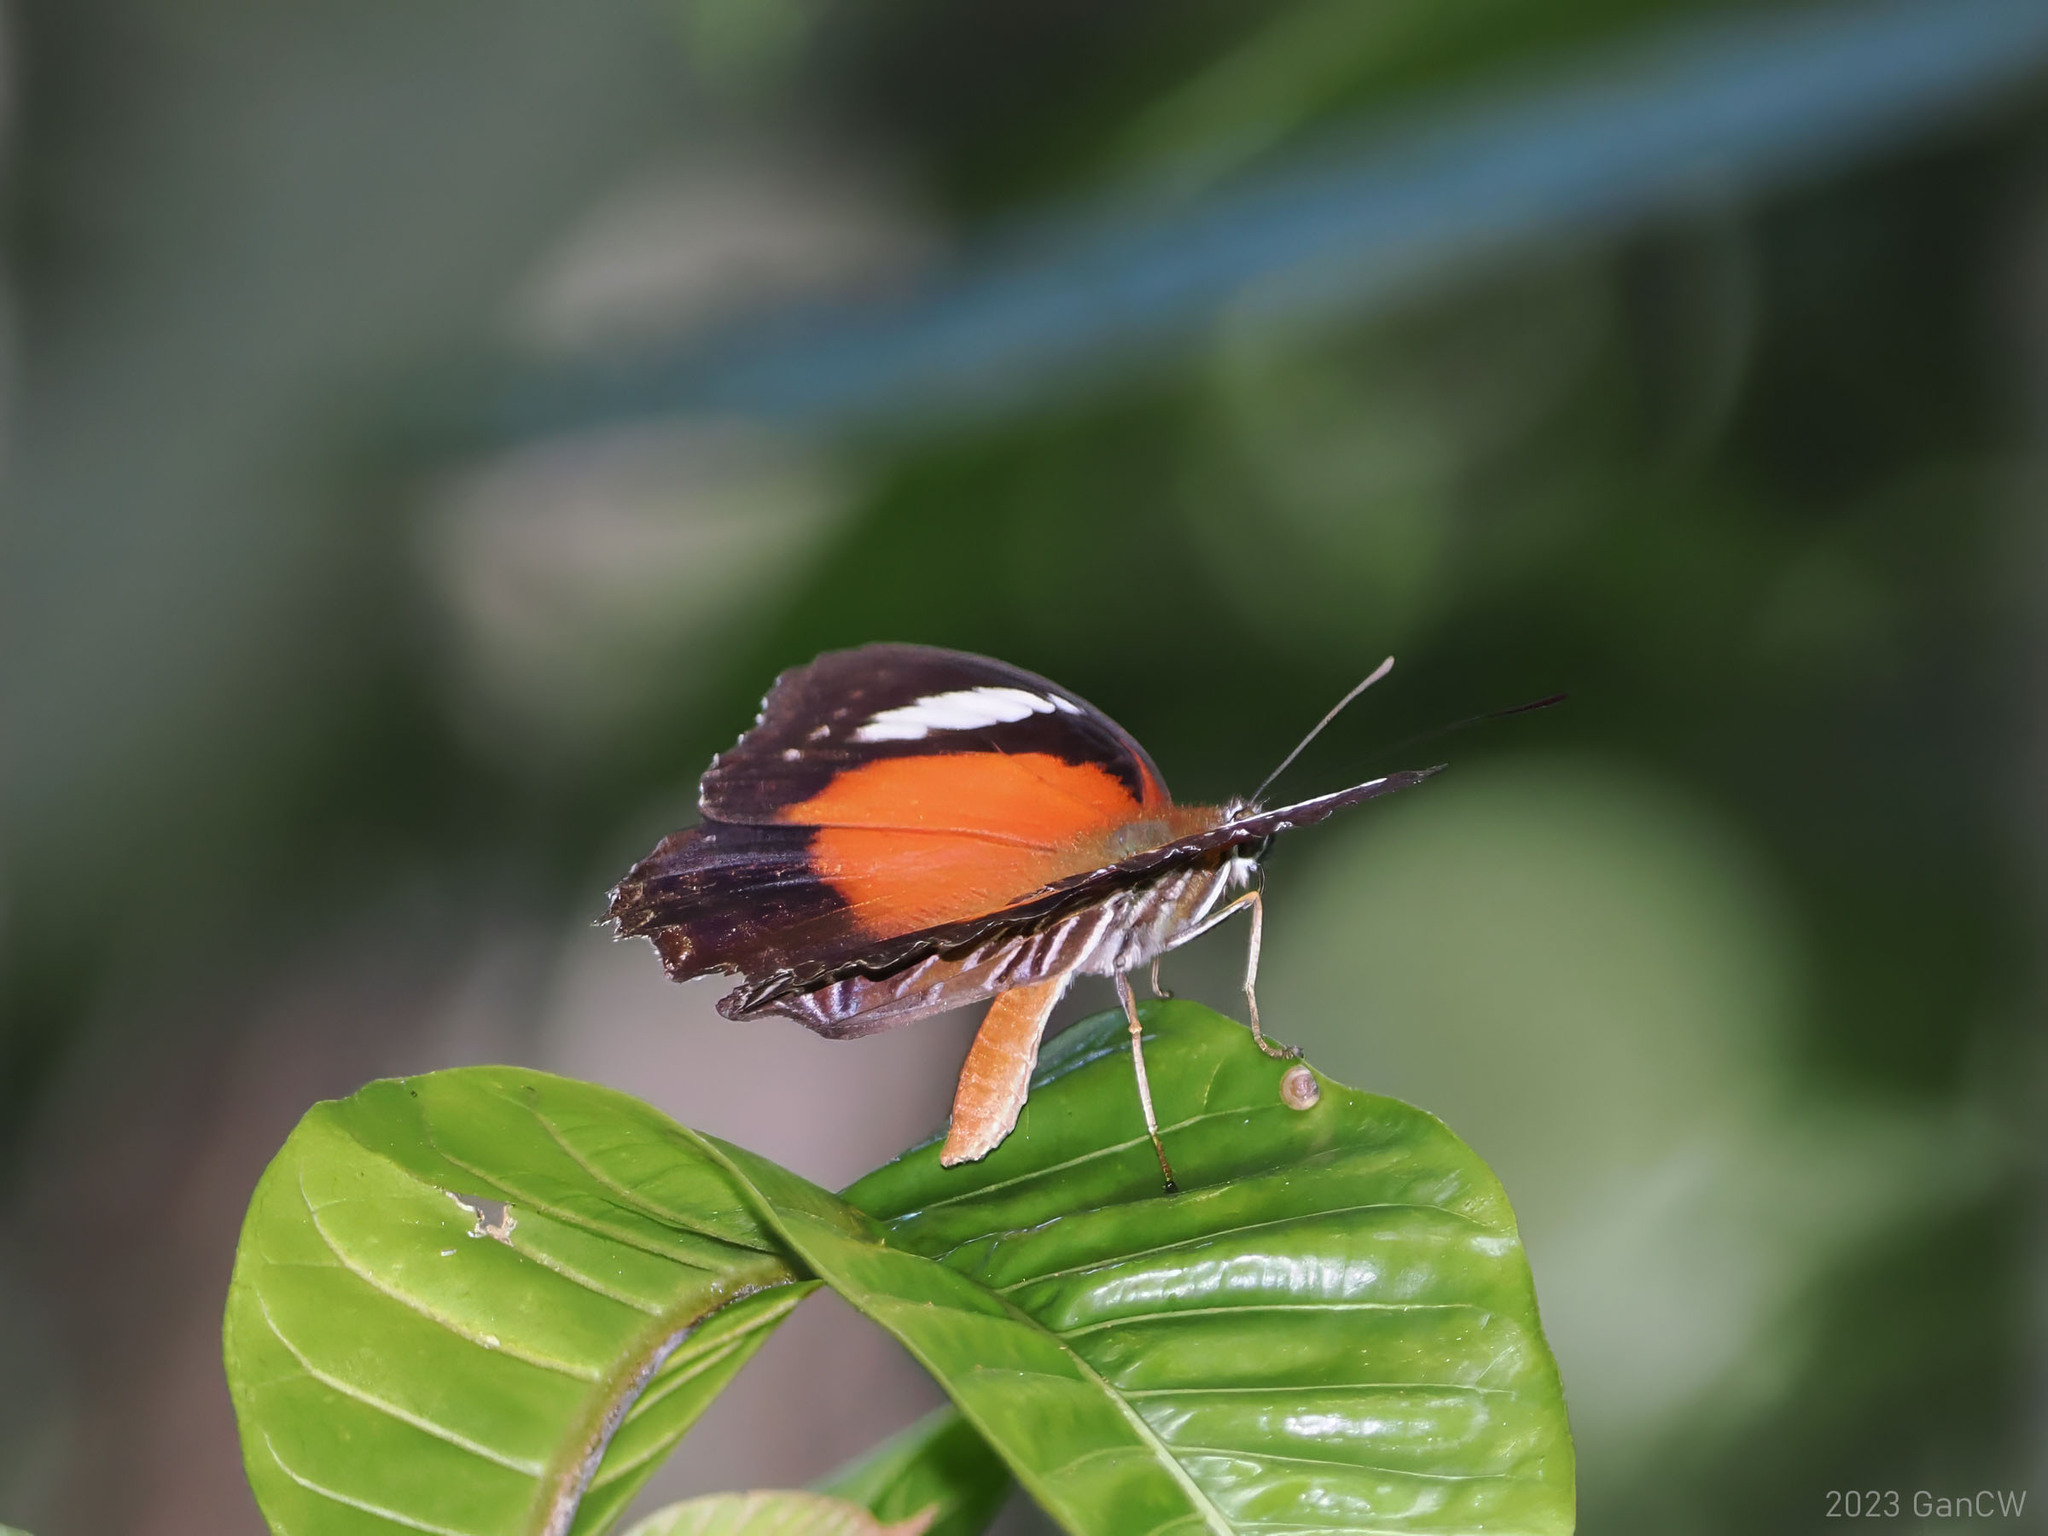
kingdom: Animalia
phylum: Arthropoda
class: Insecta
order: Lepidoptera
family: Nymphalidae
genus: Cethosia
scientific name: Cethosia cydippe
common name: Eastern red lacewing butterfly
